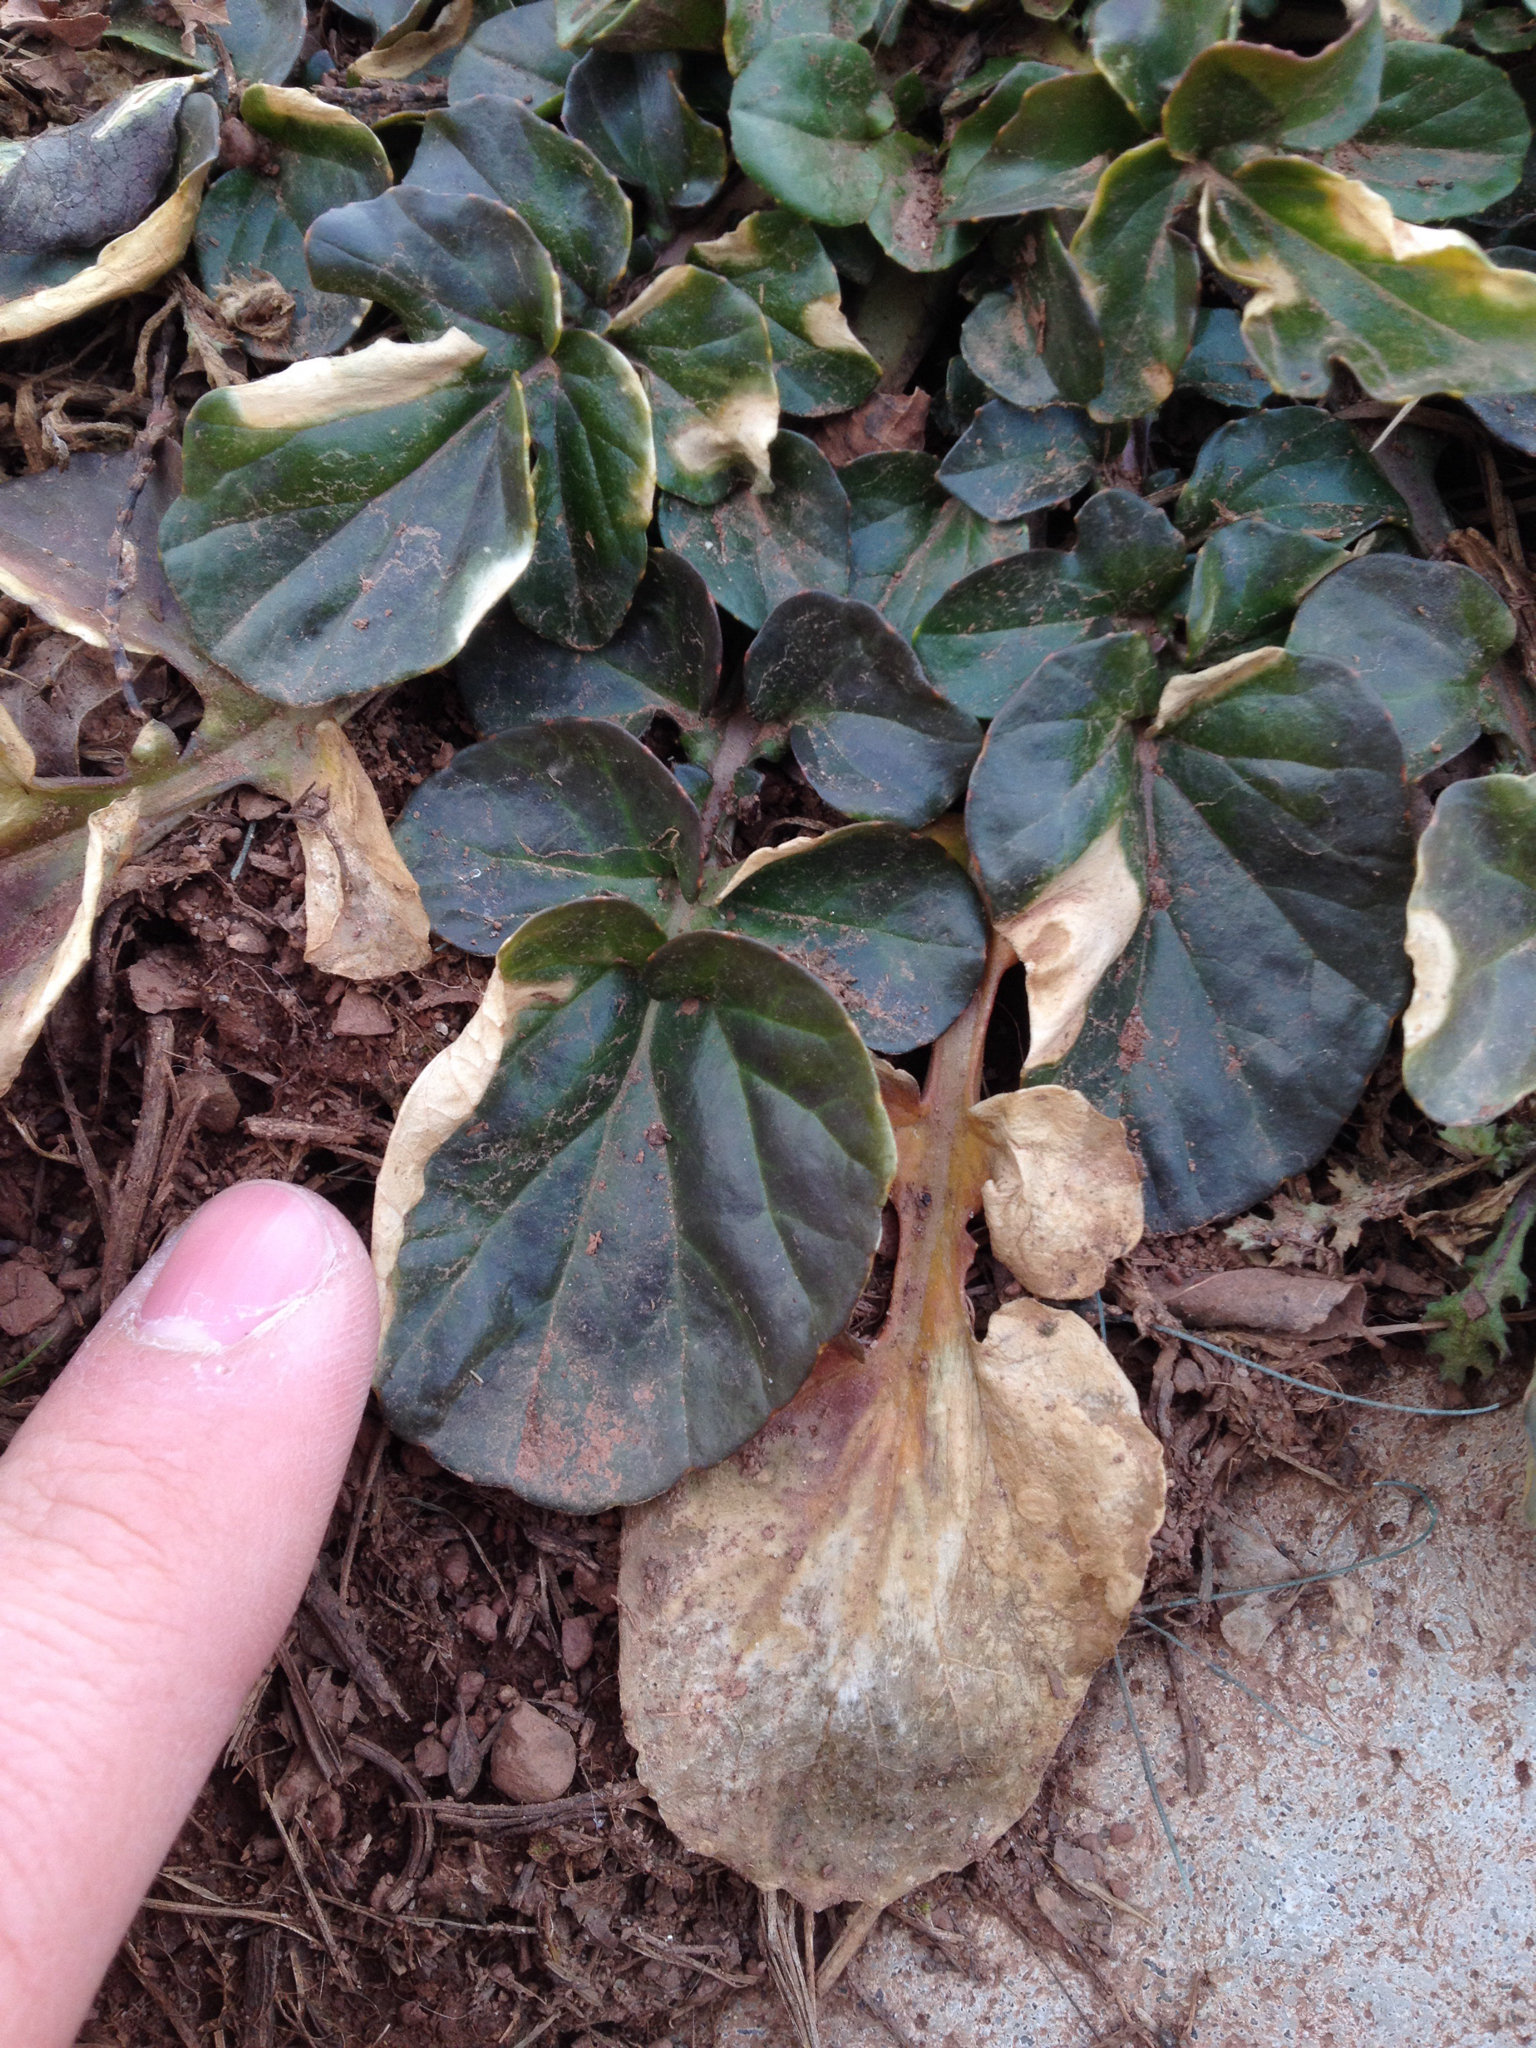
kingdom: Plantae
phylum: Tracheophyta
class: Magnoliopsida
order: Brassicales
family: Brassicaceae
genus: Barbarea
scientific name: Barbarea vulgaris
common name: Cressy-greens
